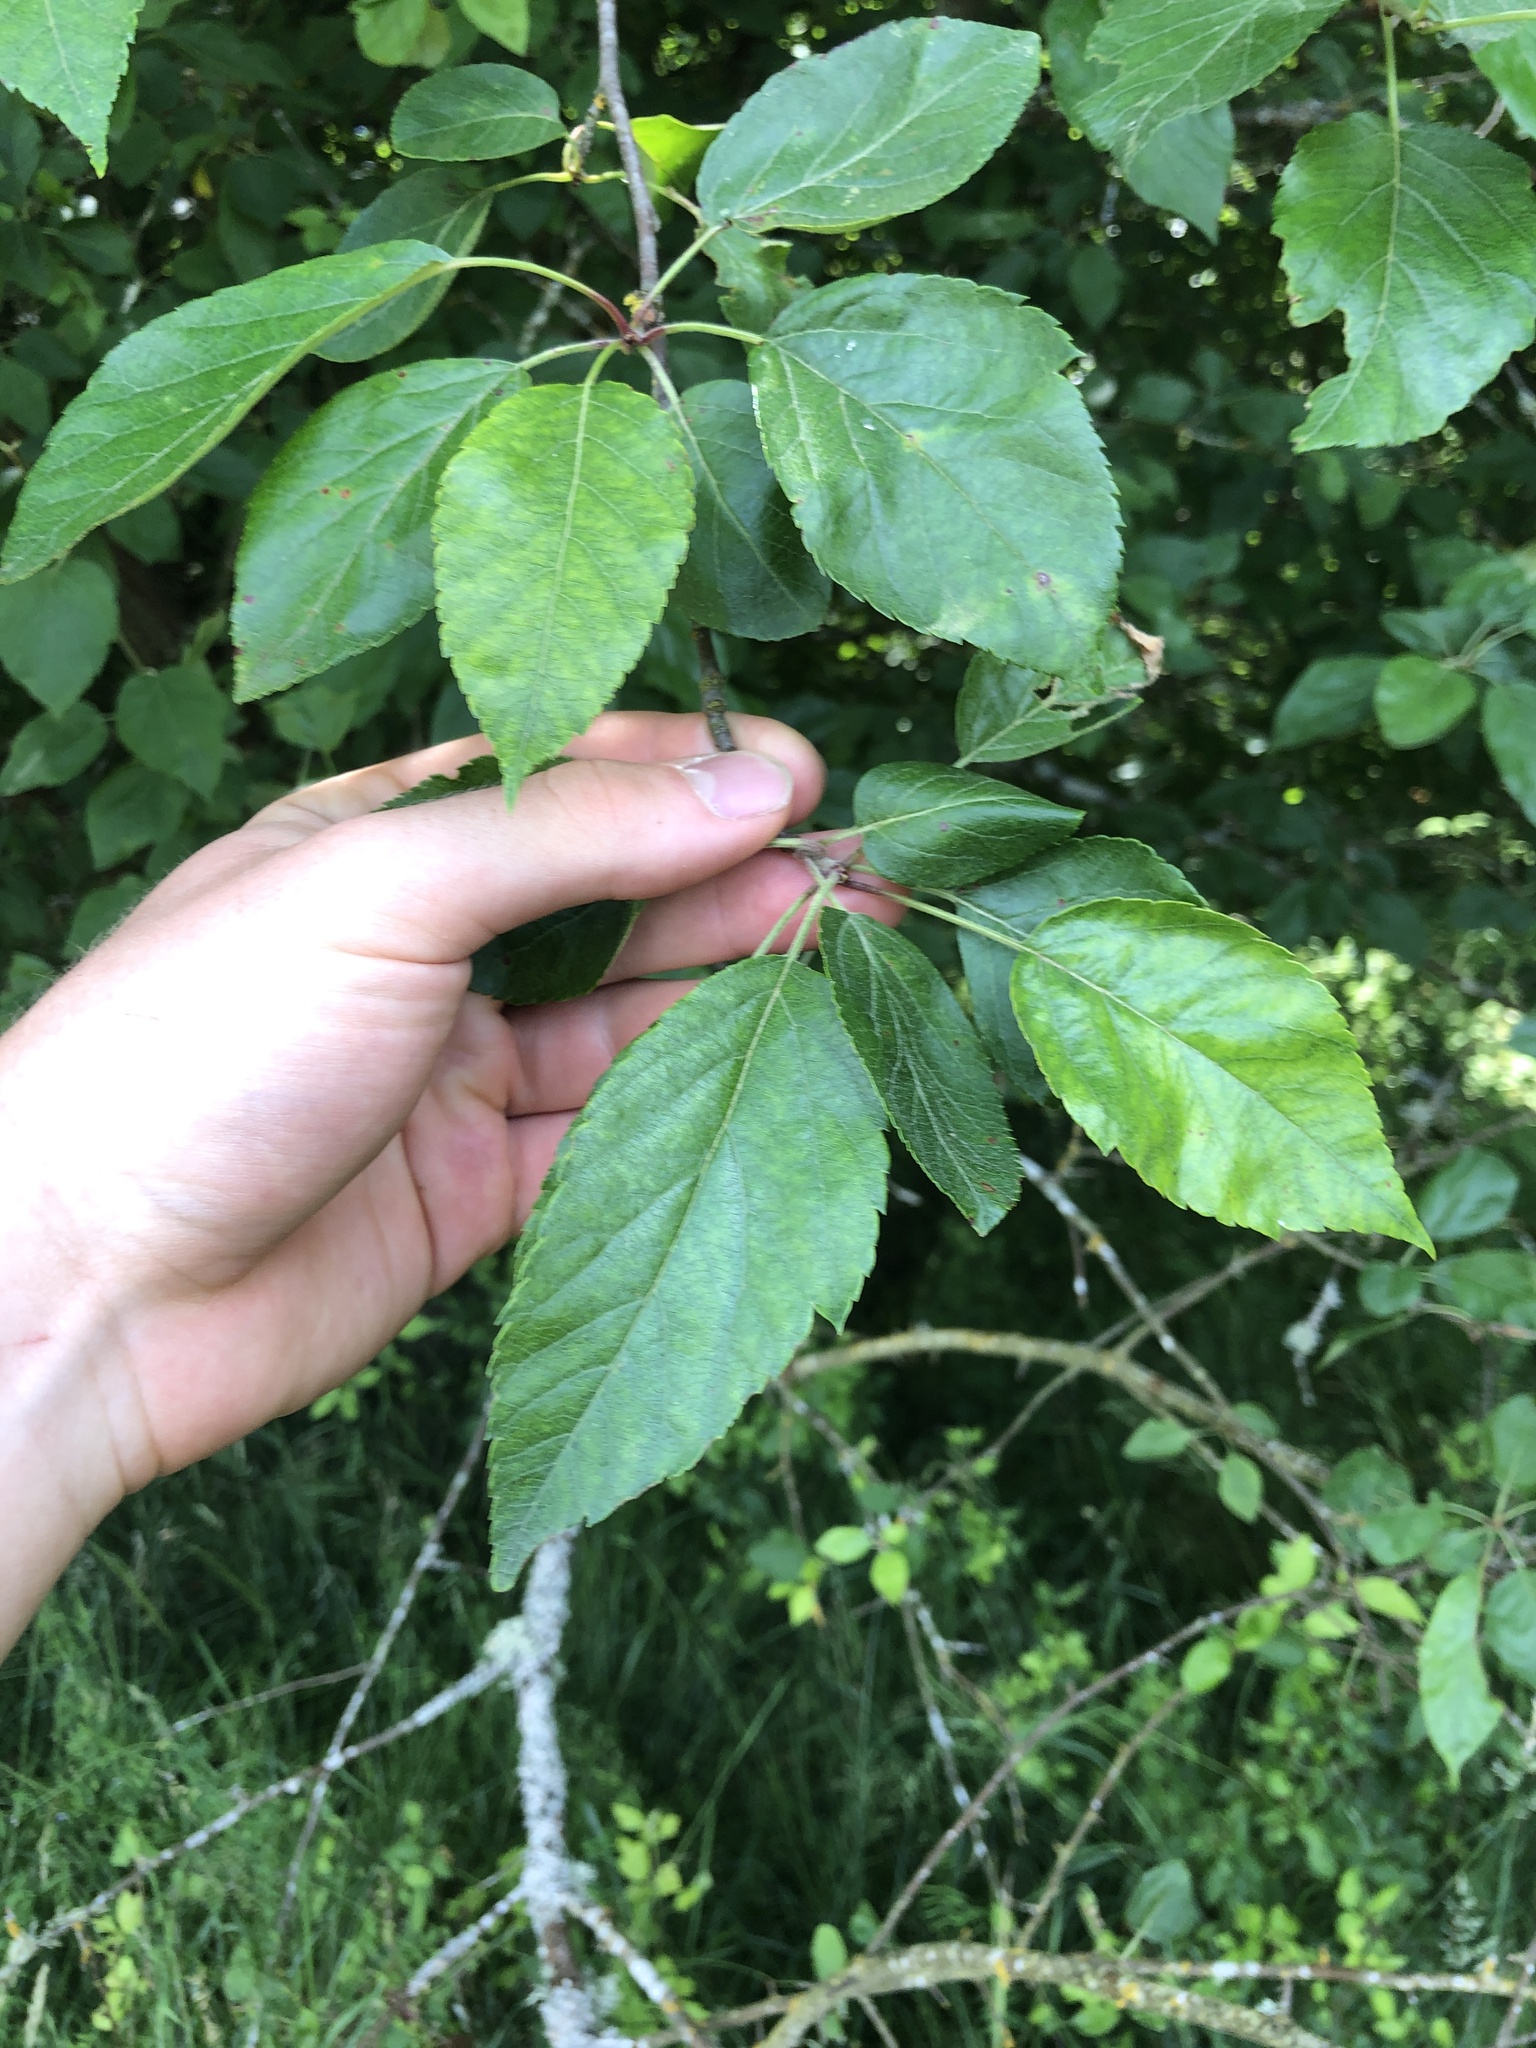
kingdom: Plantae
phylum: Tracheophyta
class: Magnoliopsida
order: Rosales
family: Rosaceae
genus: Malus
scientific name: Malus fusca
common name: Oregon crab apple
